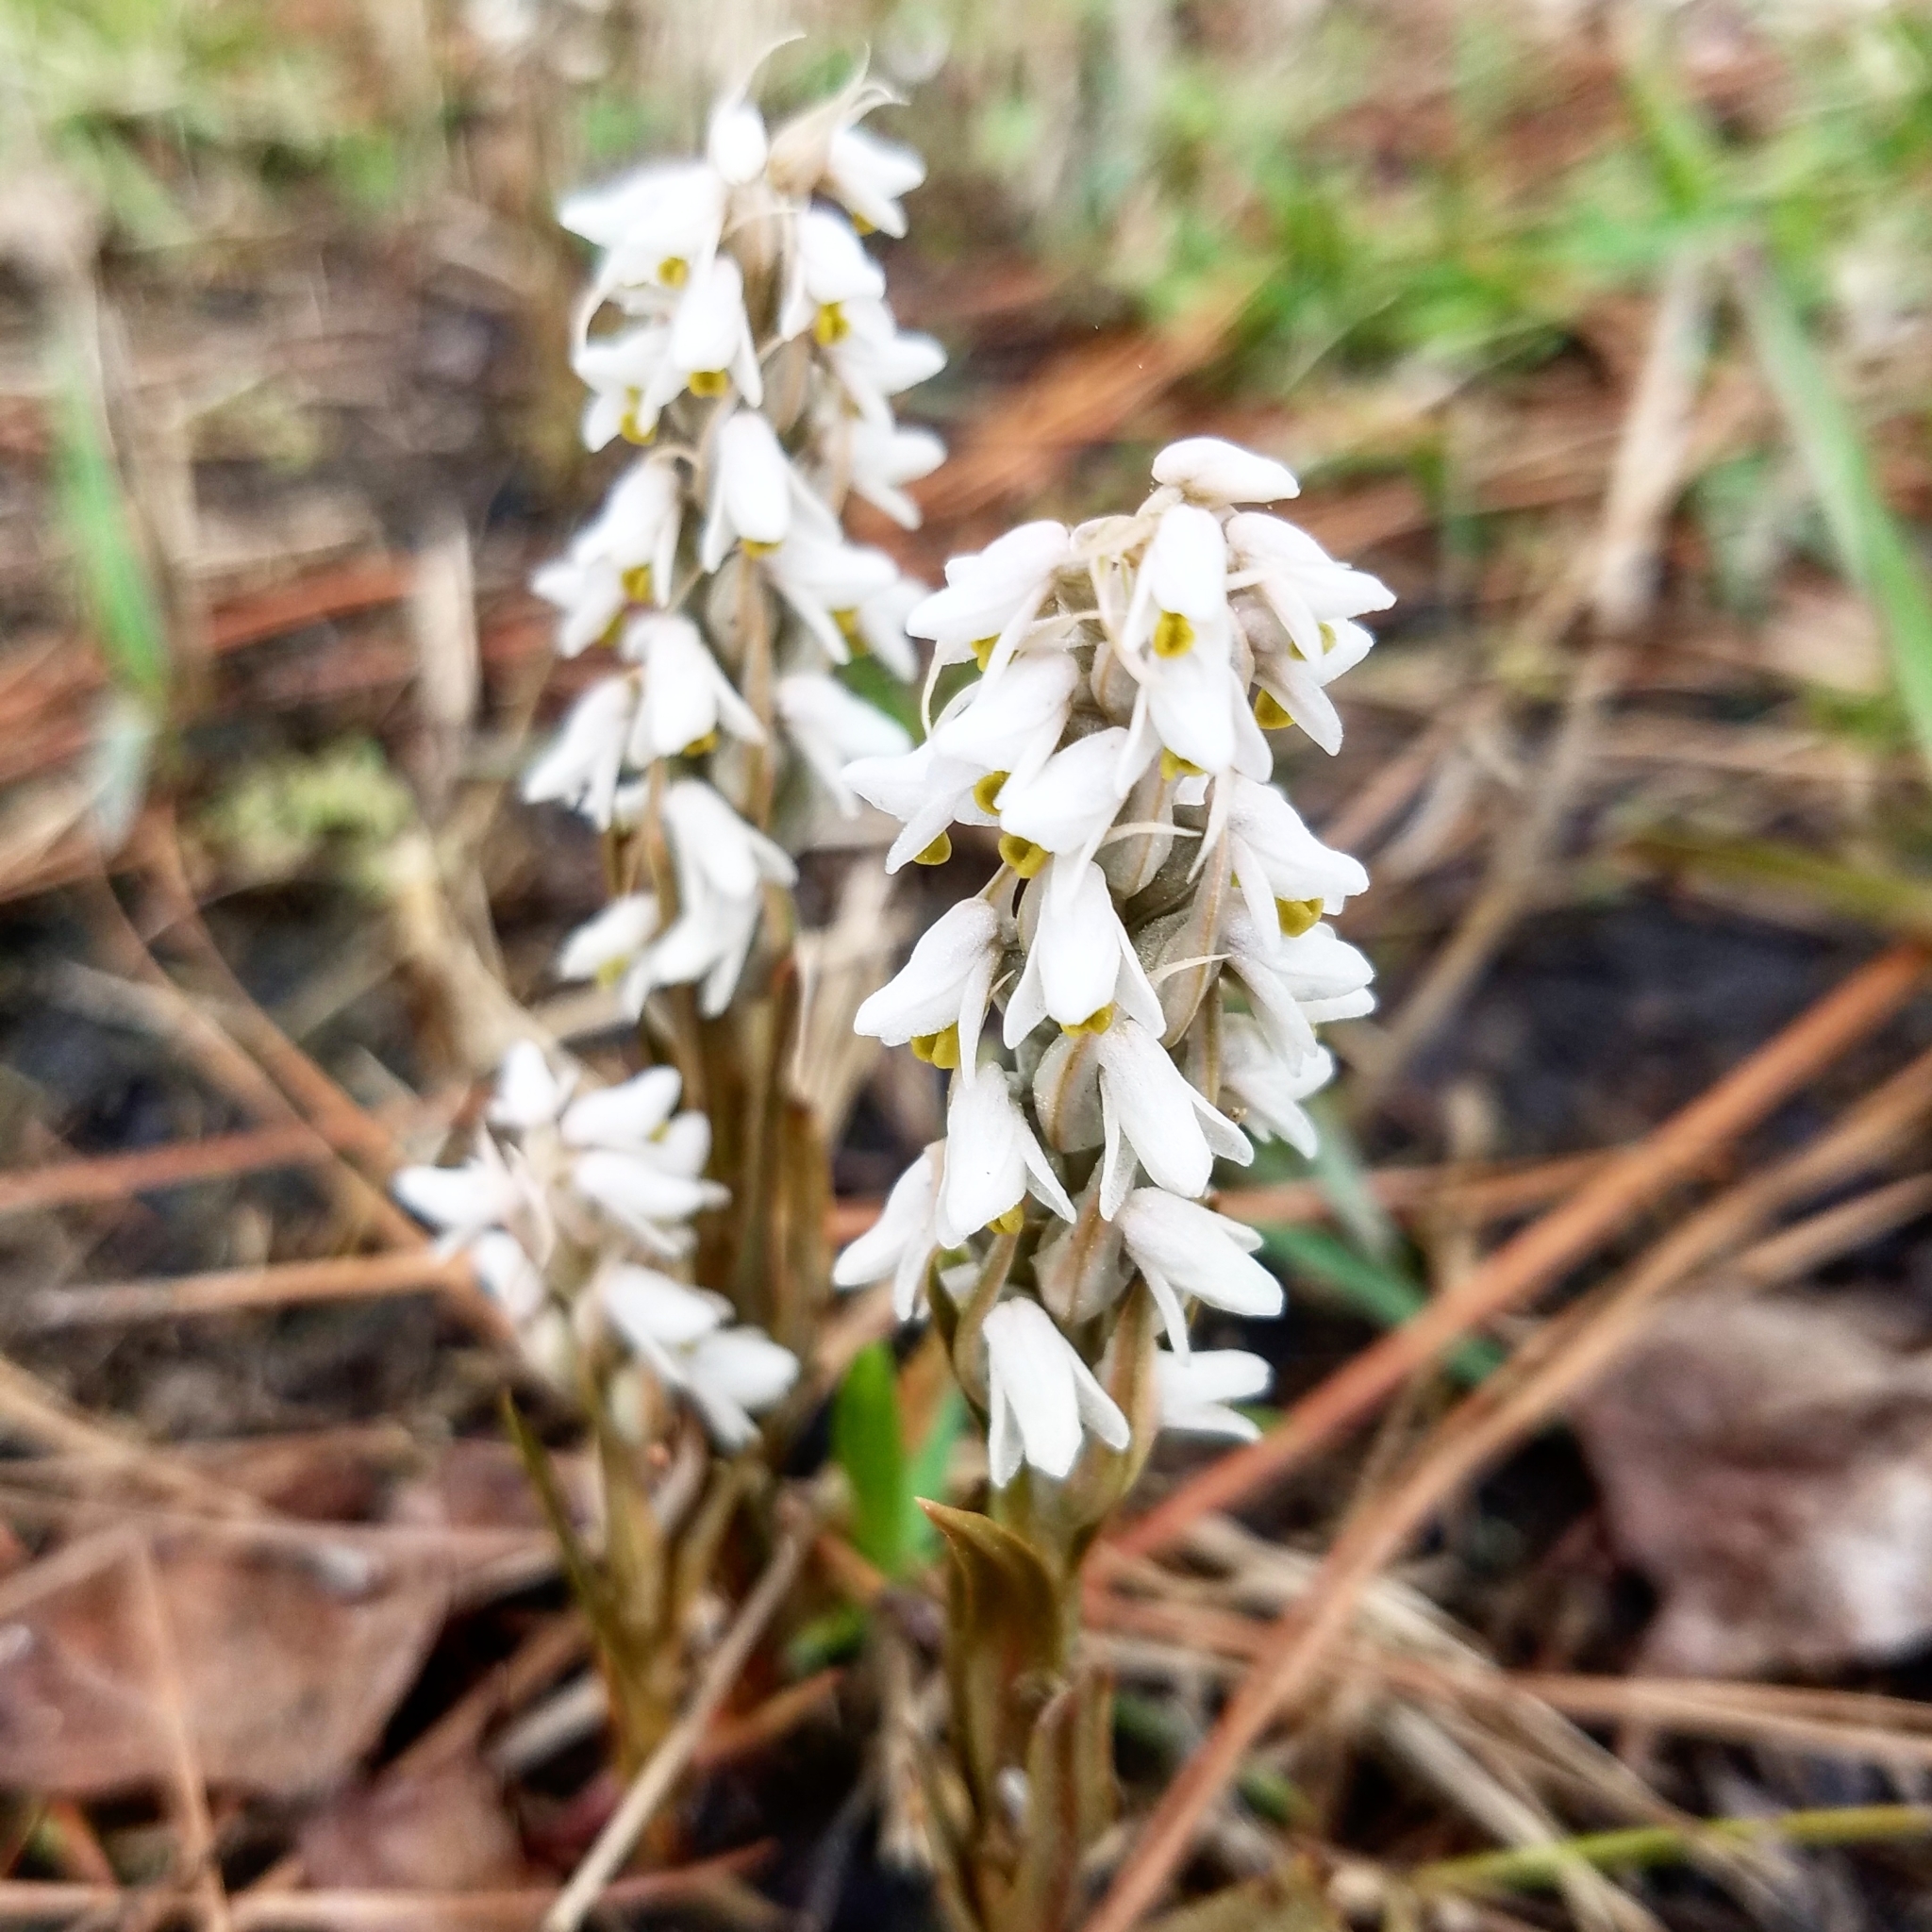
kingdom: Plantae
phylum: Tracheophyta
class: Liliopsida
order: Asparagales
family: Orchidaceae
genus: Zeuxine
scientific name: Zeuxine strateumatica
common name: Soldier's orchid
